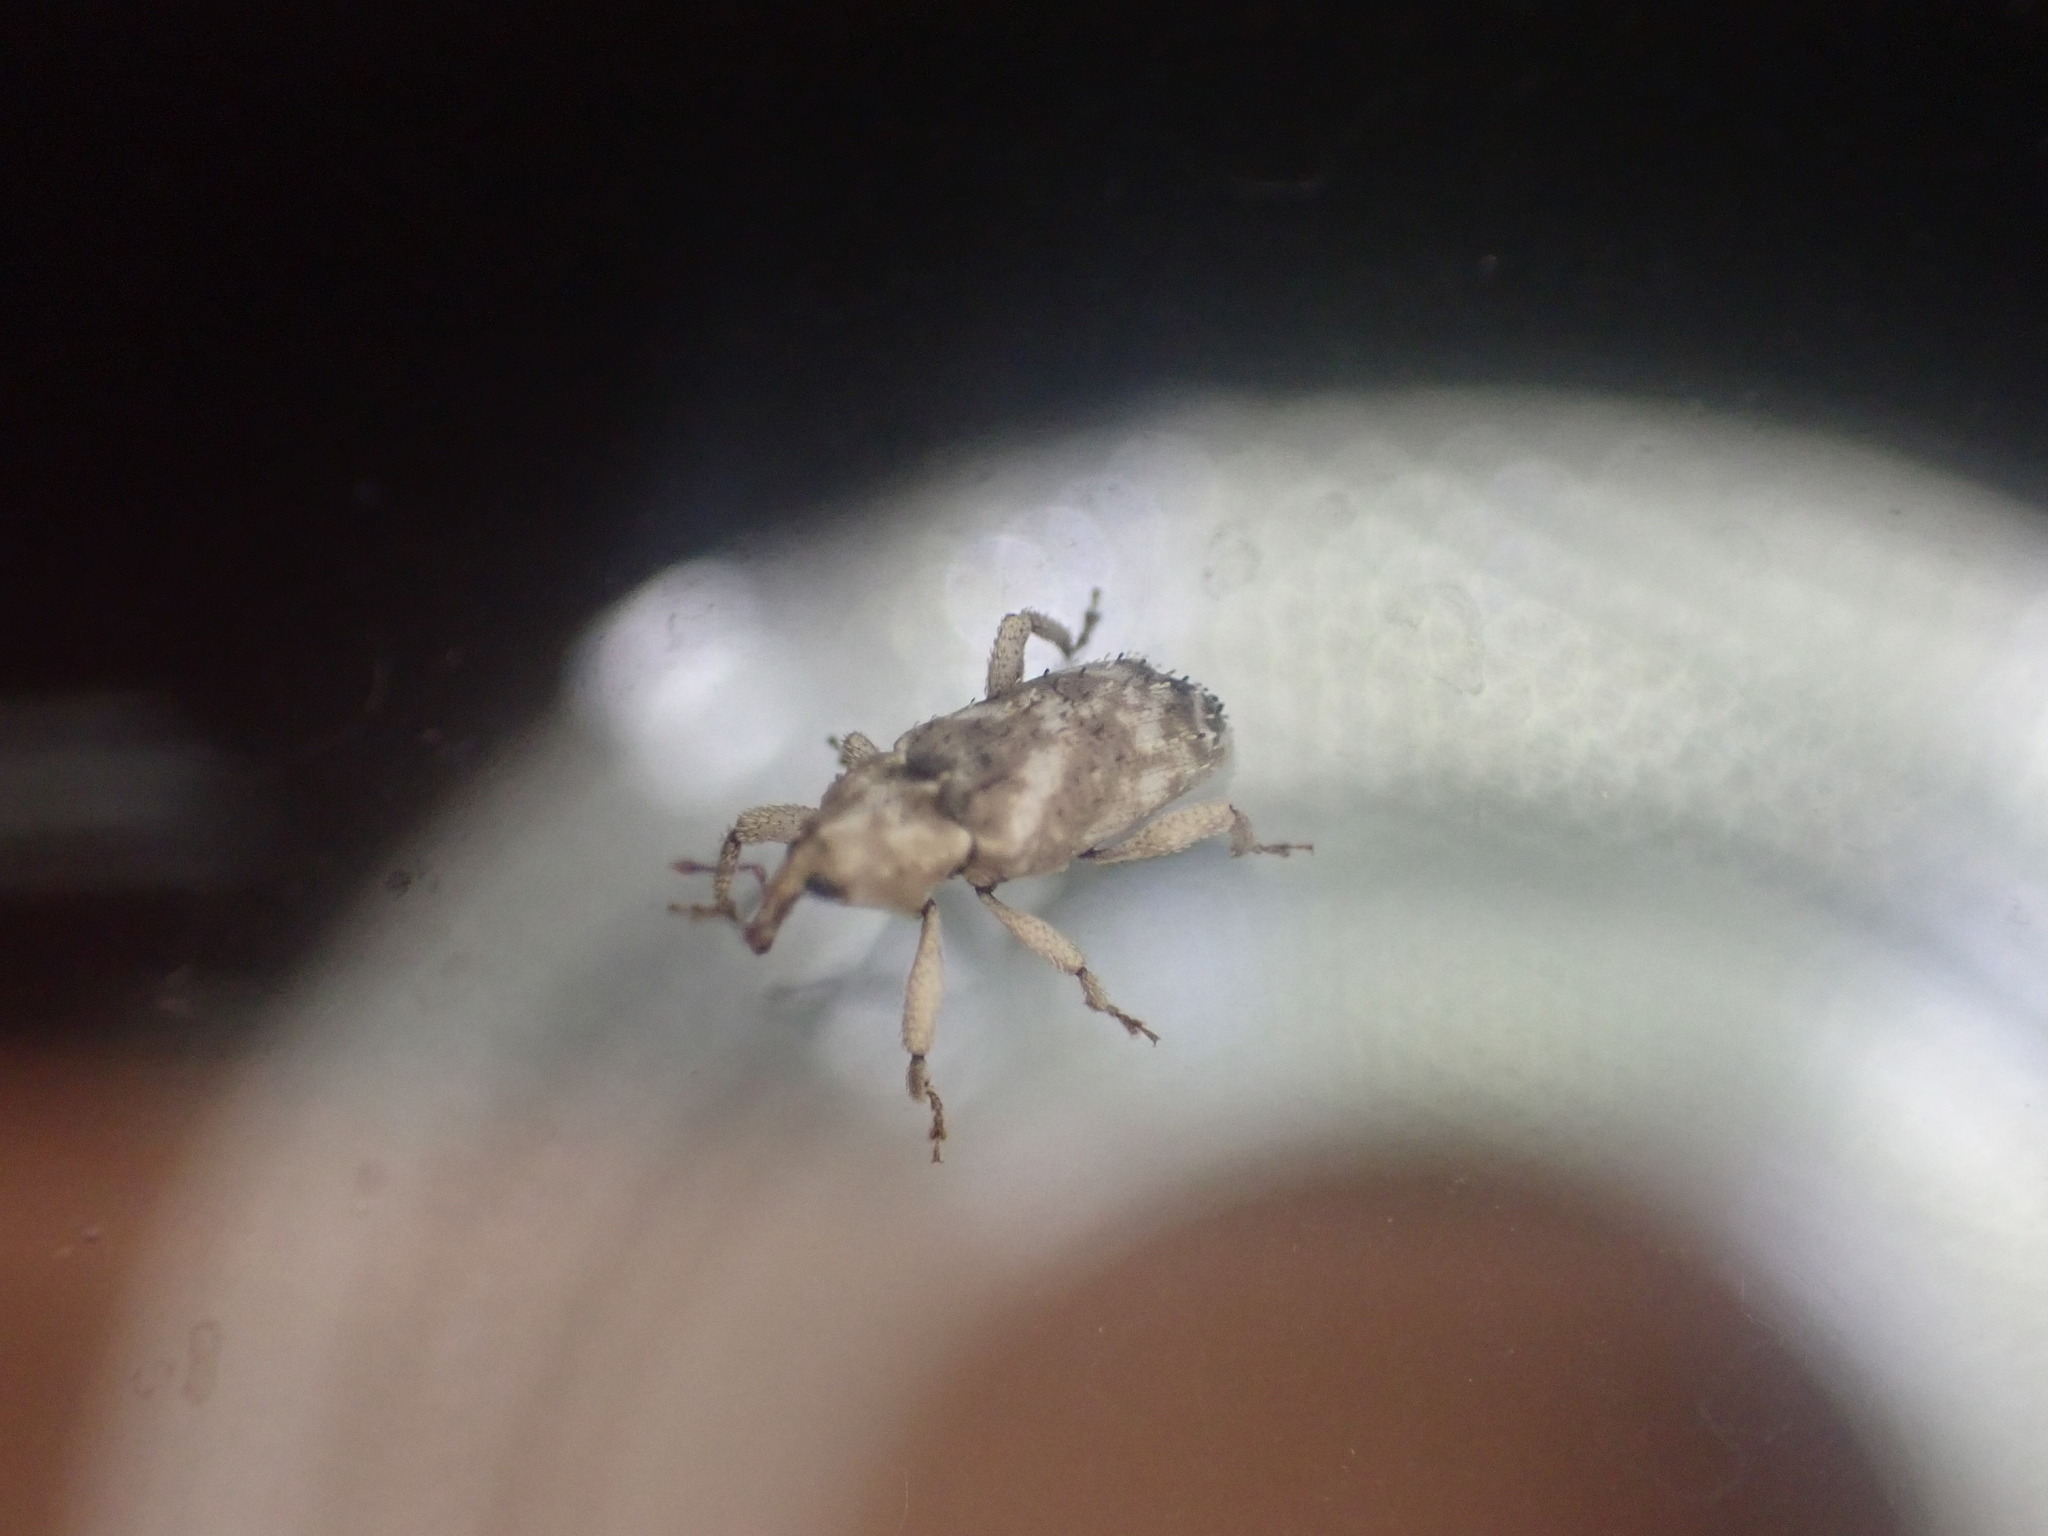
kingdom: Animalia
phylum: Arthropoda
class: Insecta
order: Coleoptera
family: Curculionidae
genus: Mitrastethus
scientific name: Mitrastethus baridioides
